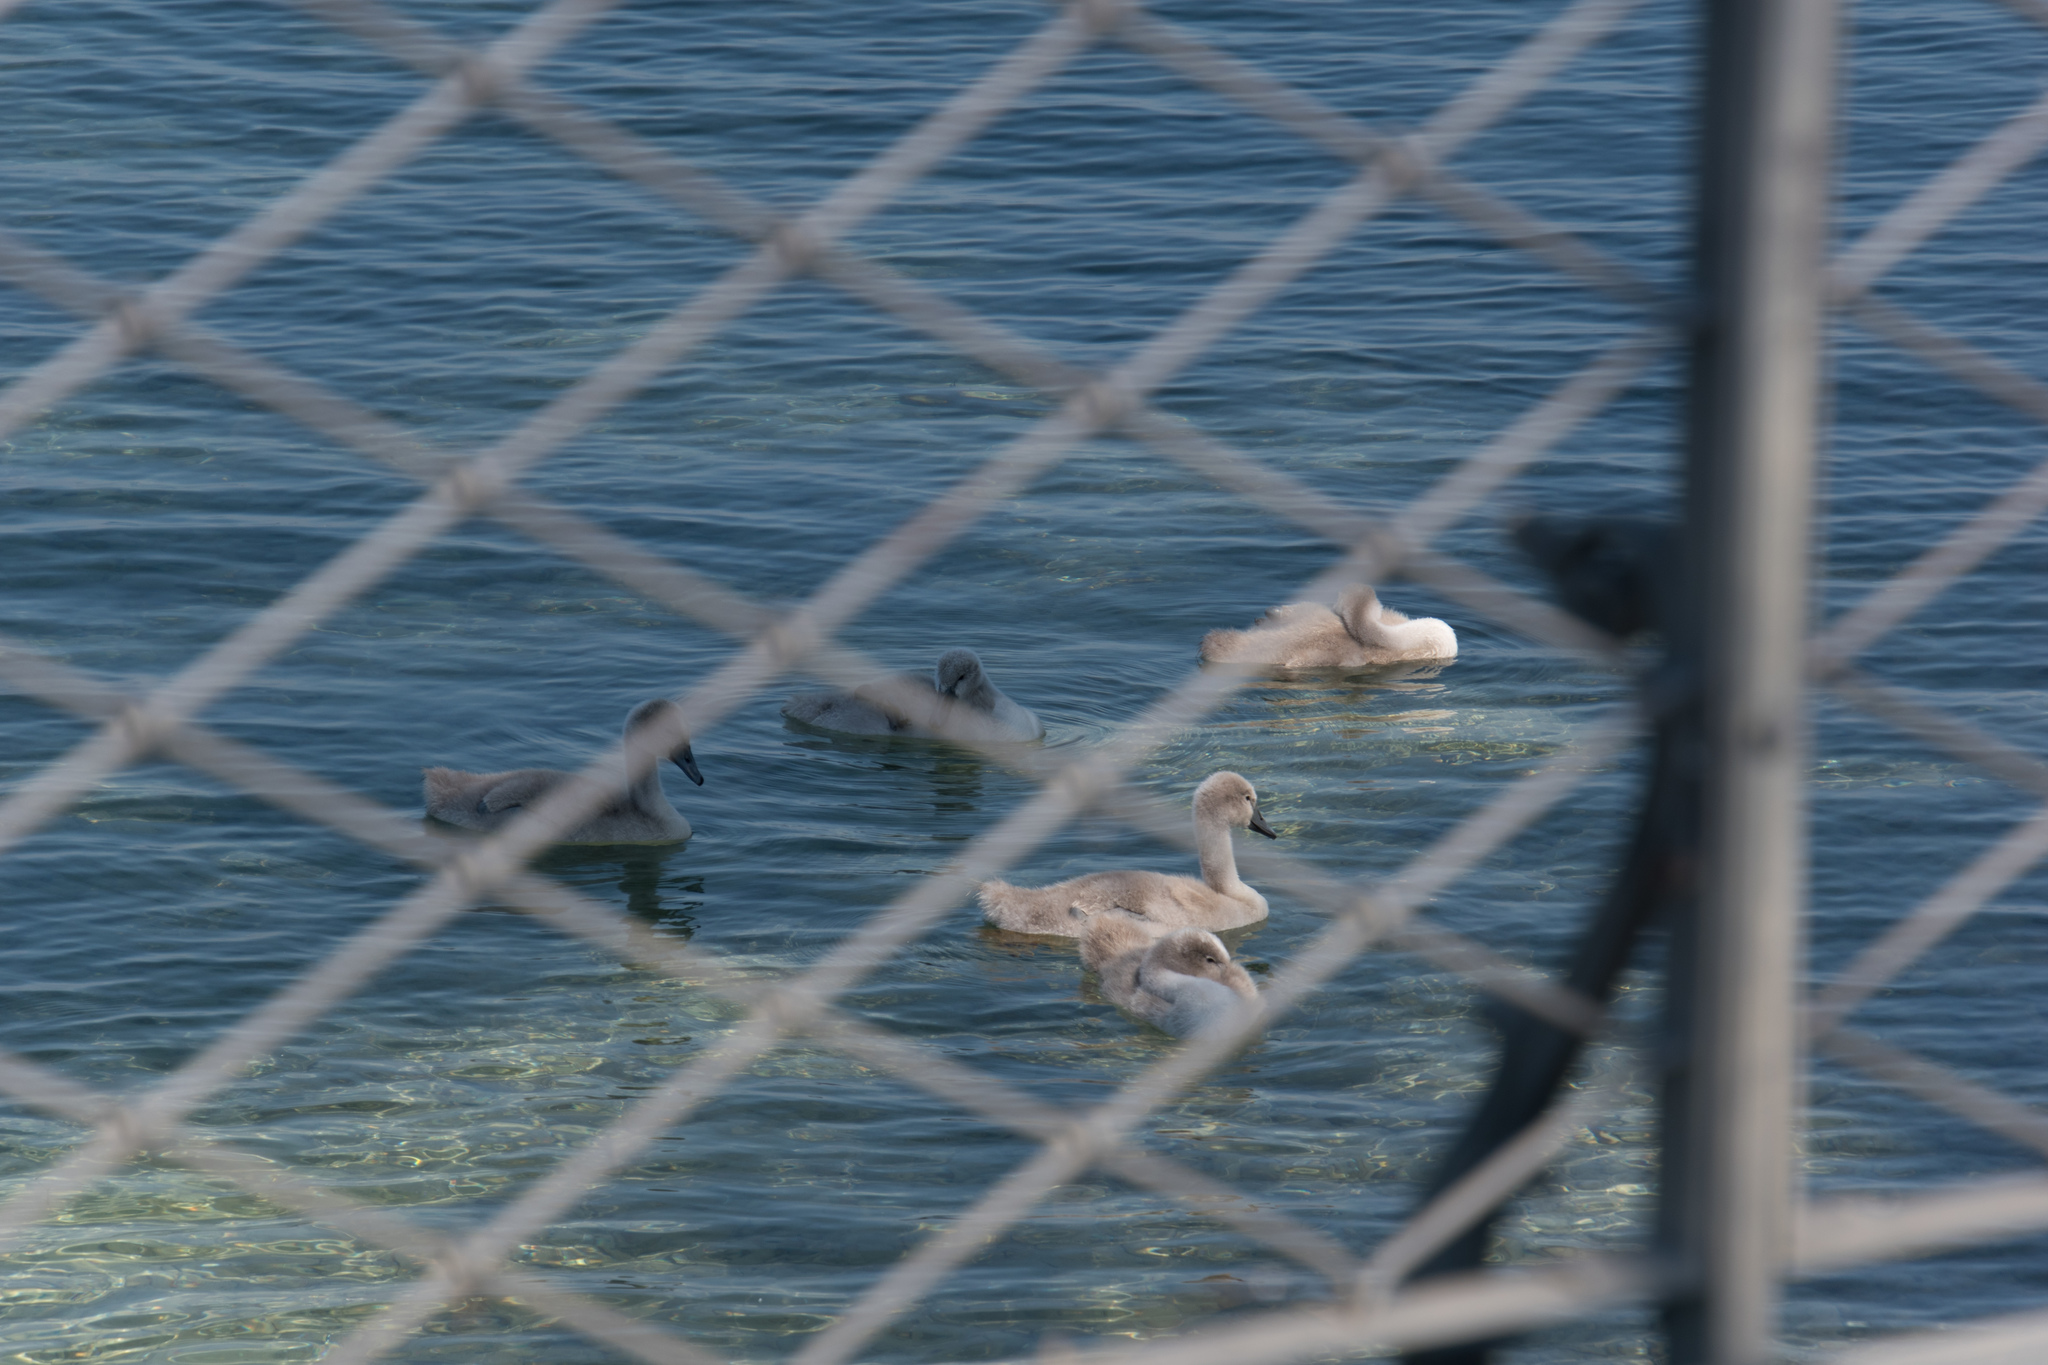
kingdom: Animalia
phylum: Chordata
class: Aves
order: Anseriformes
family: Anatidae
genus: Cygnus
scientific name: Cygnus olor
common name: Mute swan
